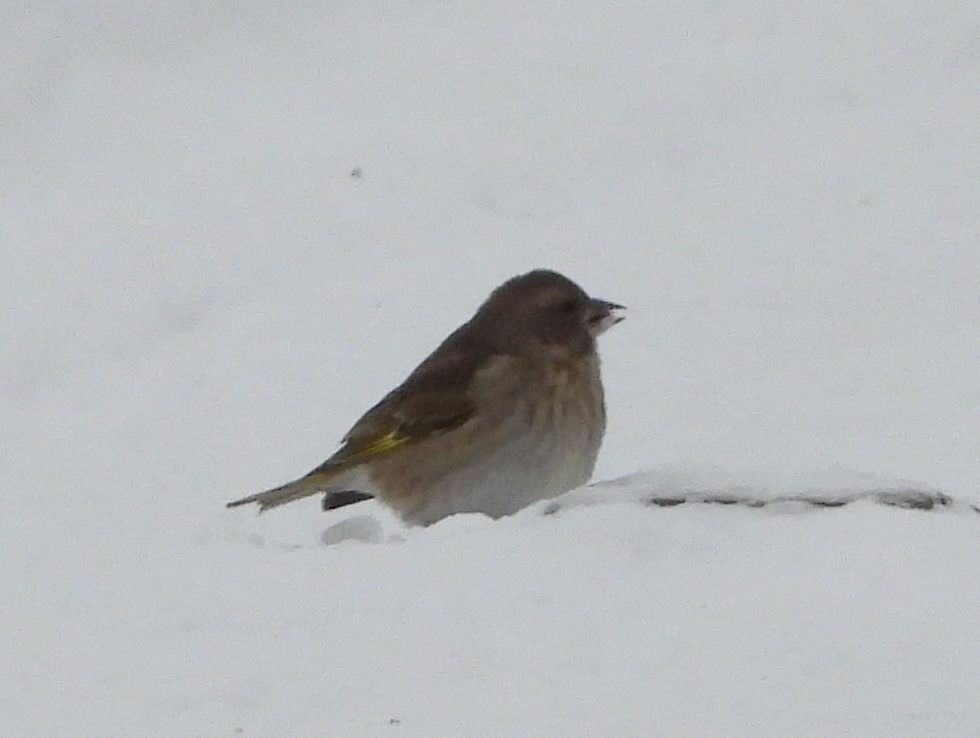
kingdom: Plantae
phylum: Tracheophyta
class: Liliopsida
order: Poales
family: Poaceae
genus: Chloris
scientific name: Chloris chloris
